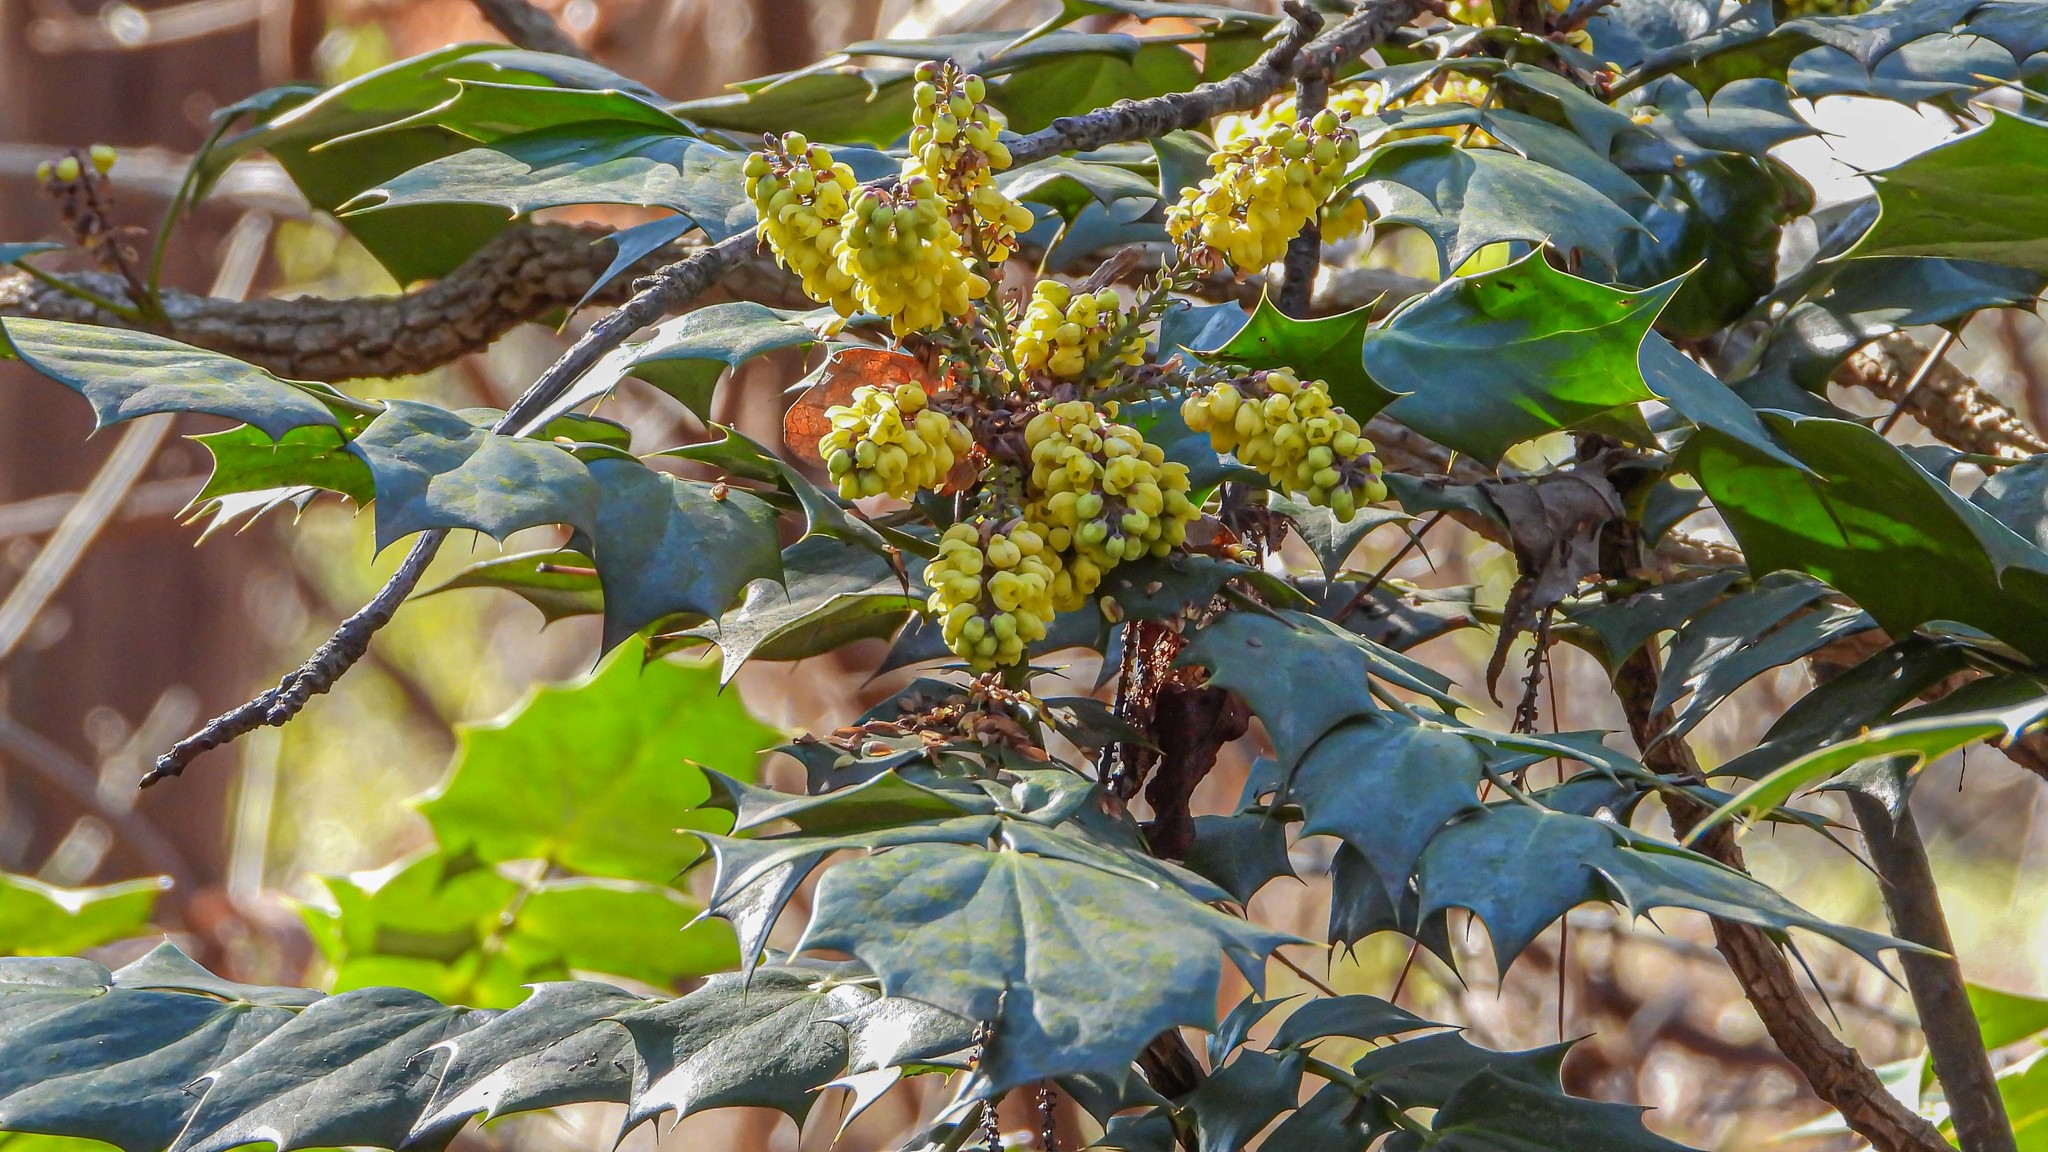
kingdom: Plantae
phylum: Tracheophyta
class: Magnoliopsida
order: Ranunculales
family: Berberidaceae
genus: Mahonia
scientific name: Mahonia bealei
